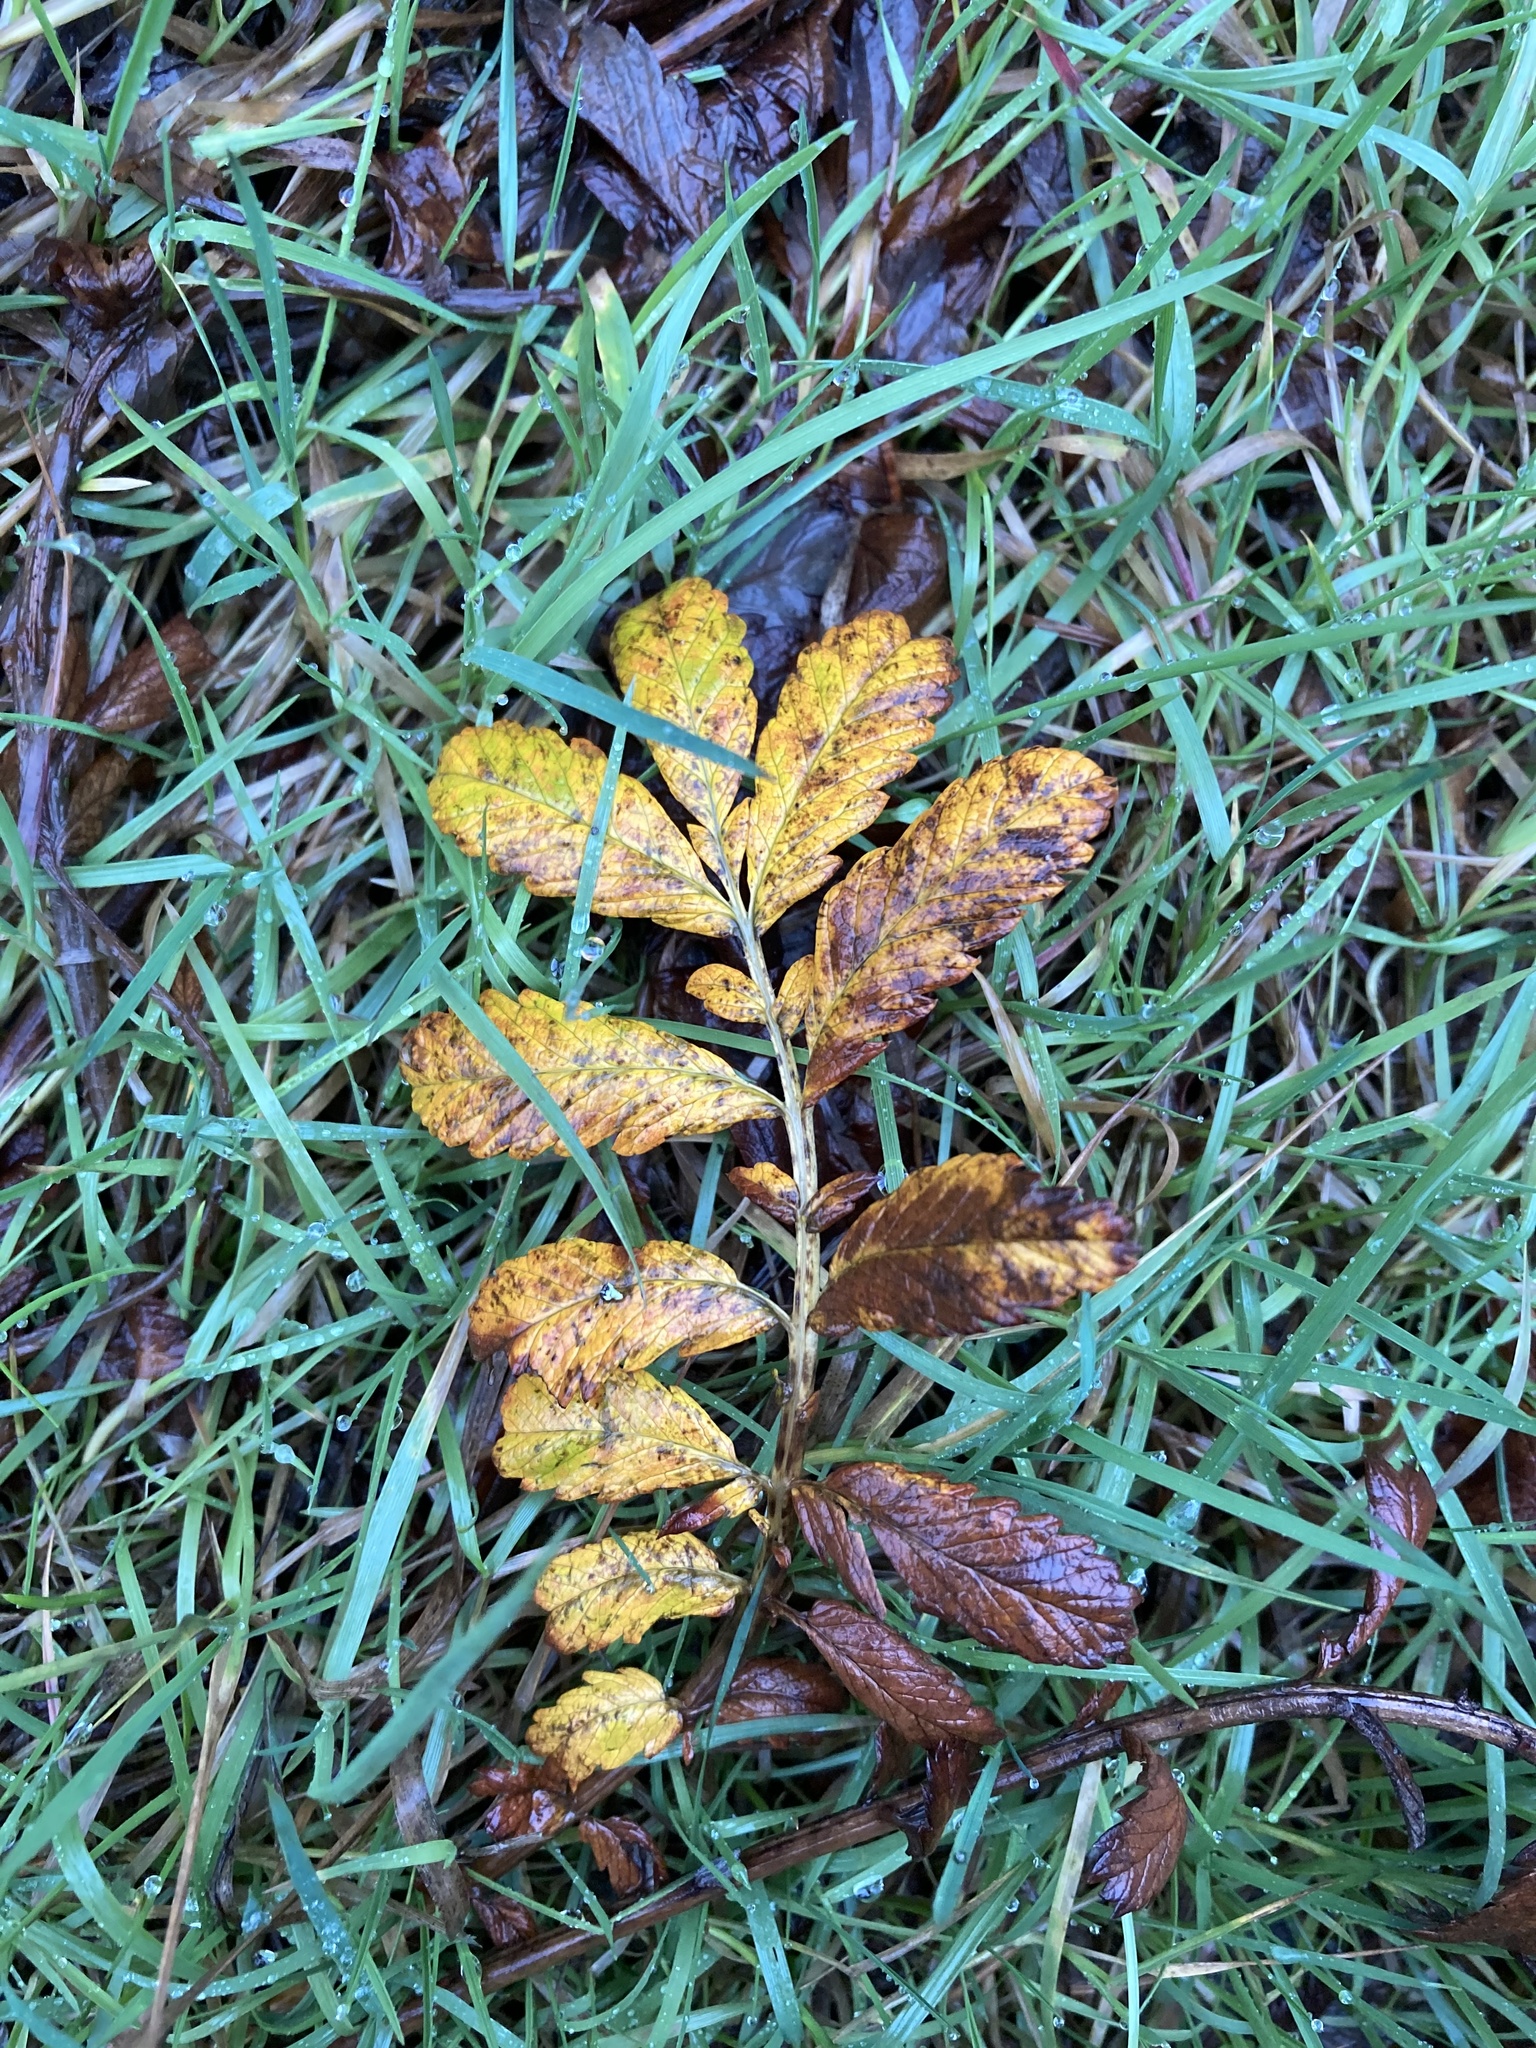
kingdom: Plantae
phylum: Tracheophyta
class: Magnoliopsida
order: Rosales
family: Rosaceae
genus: Argentina
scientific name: Argentina anserina
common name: Common silverweed
